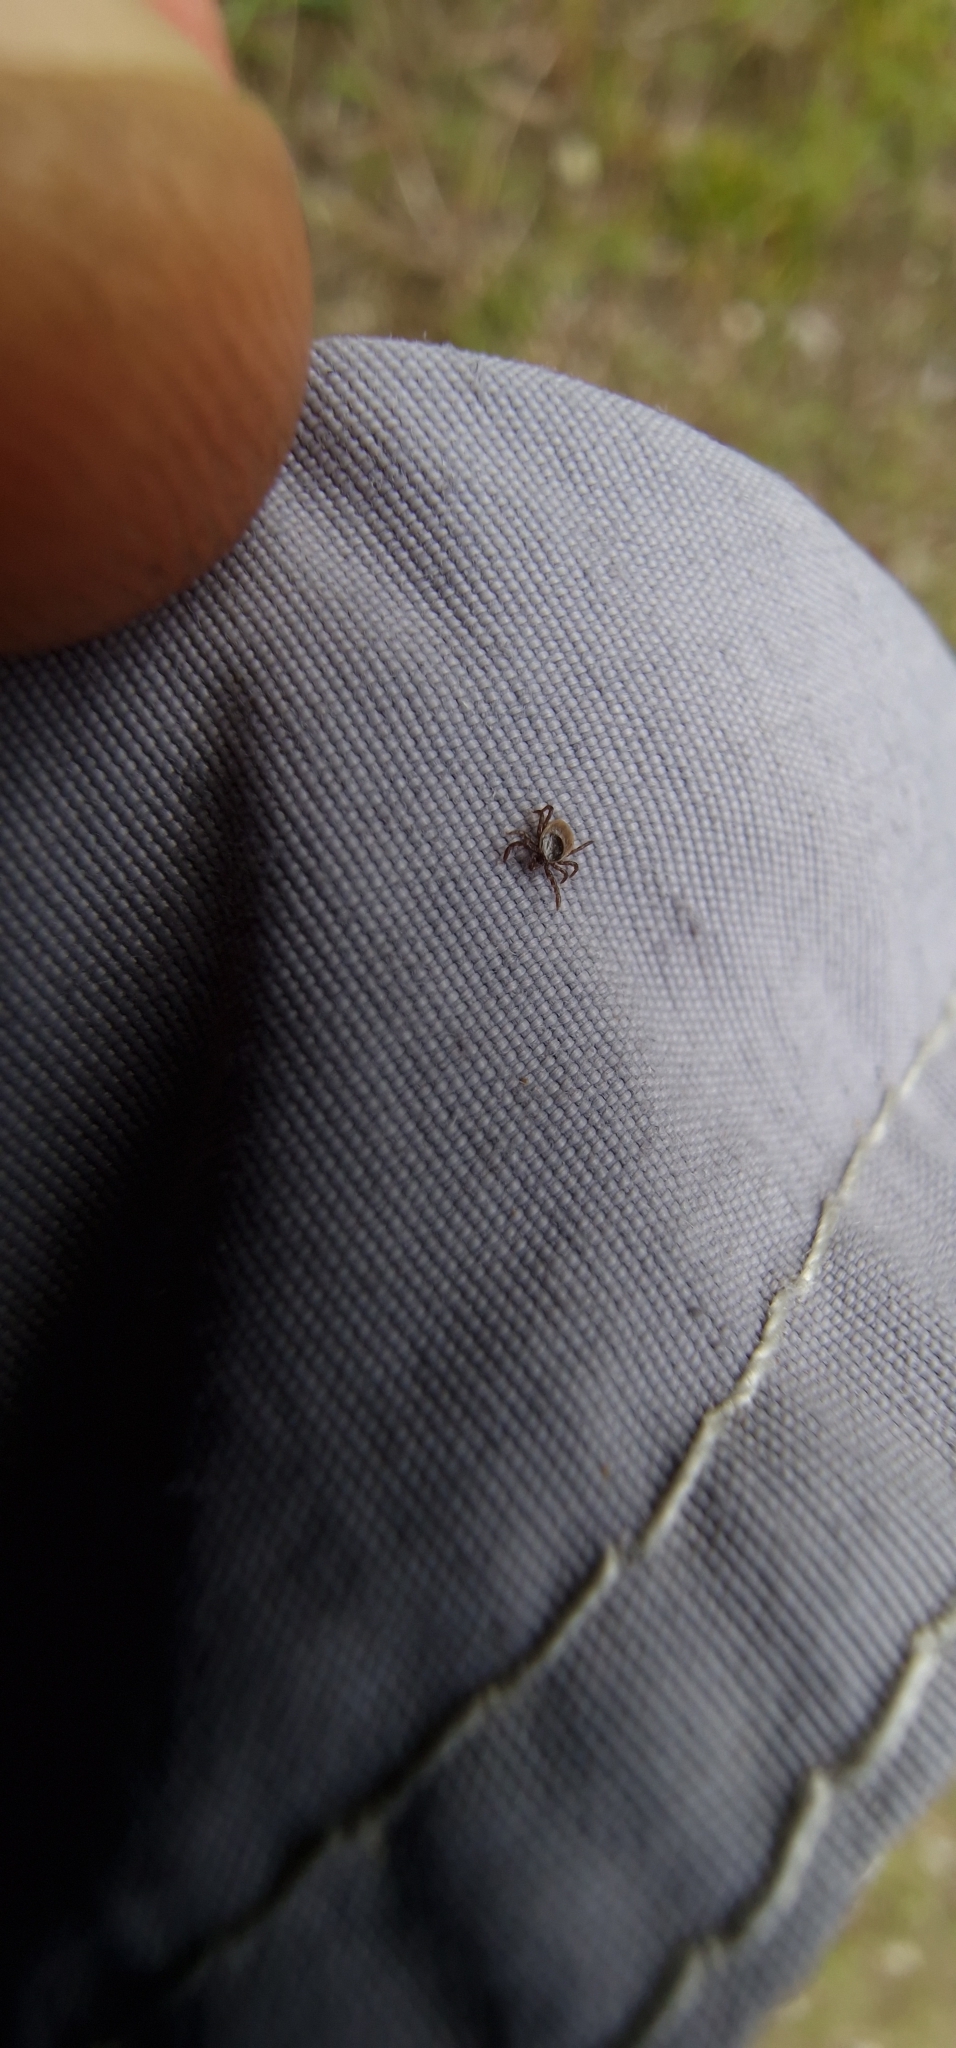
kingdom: Animalia
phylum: Arthropoda
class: Arachnida
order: Ixodida
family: Ixodidae
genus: Ixodes
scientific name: Ixodes ricinus
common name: Castor bean tick
